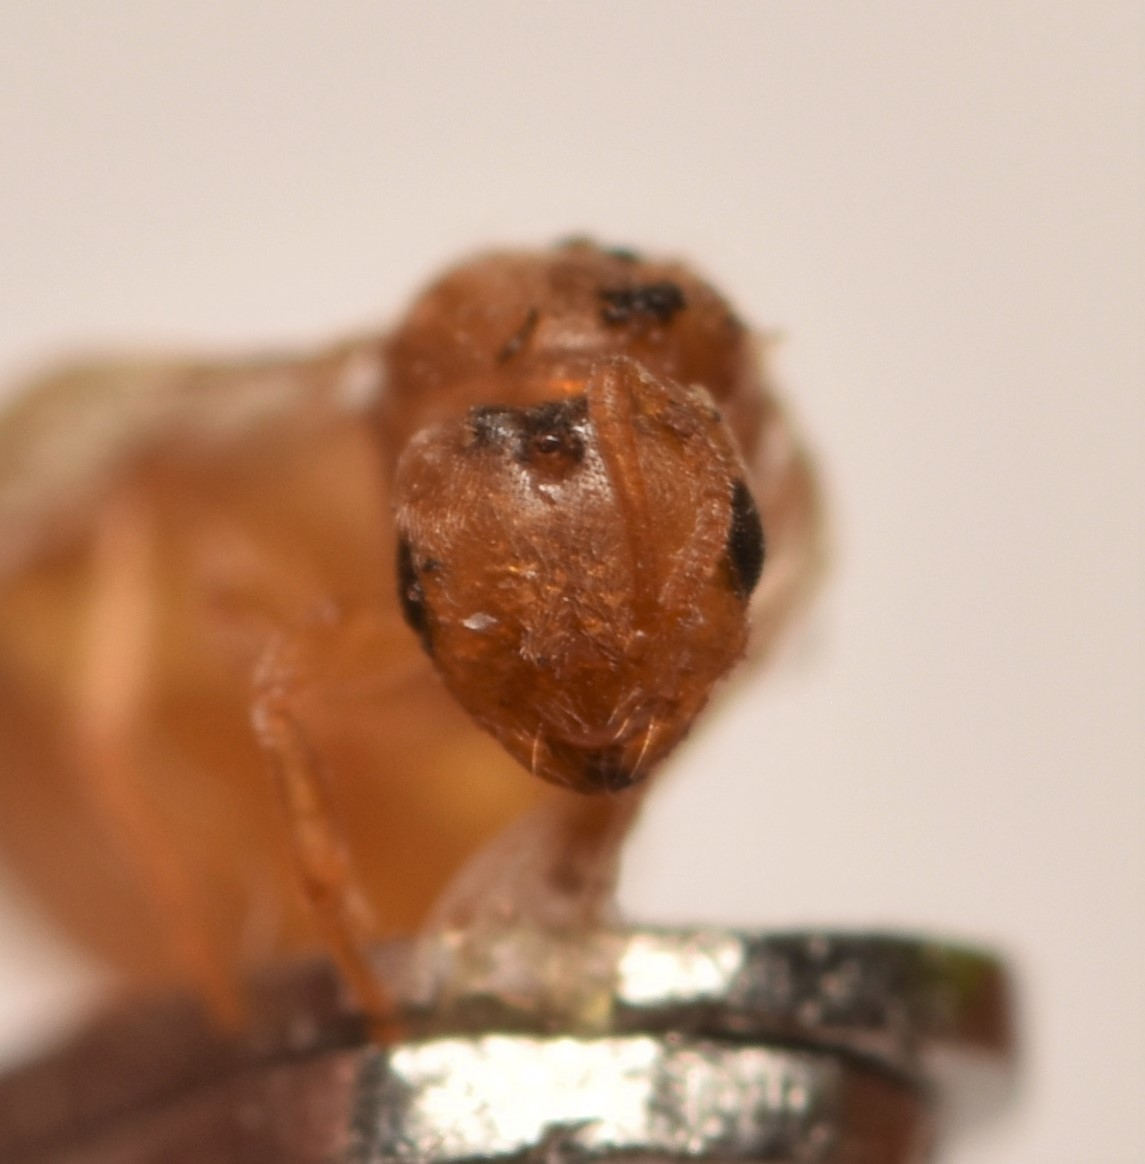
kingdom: Animalia
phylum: Arthropoda
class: Insecta
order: Hymenoptera
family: Formicidae
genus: Brachymyrmex
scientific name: Brachymyrmex depilis
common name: Hairless rover ant
